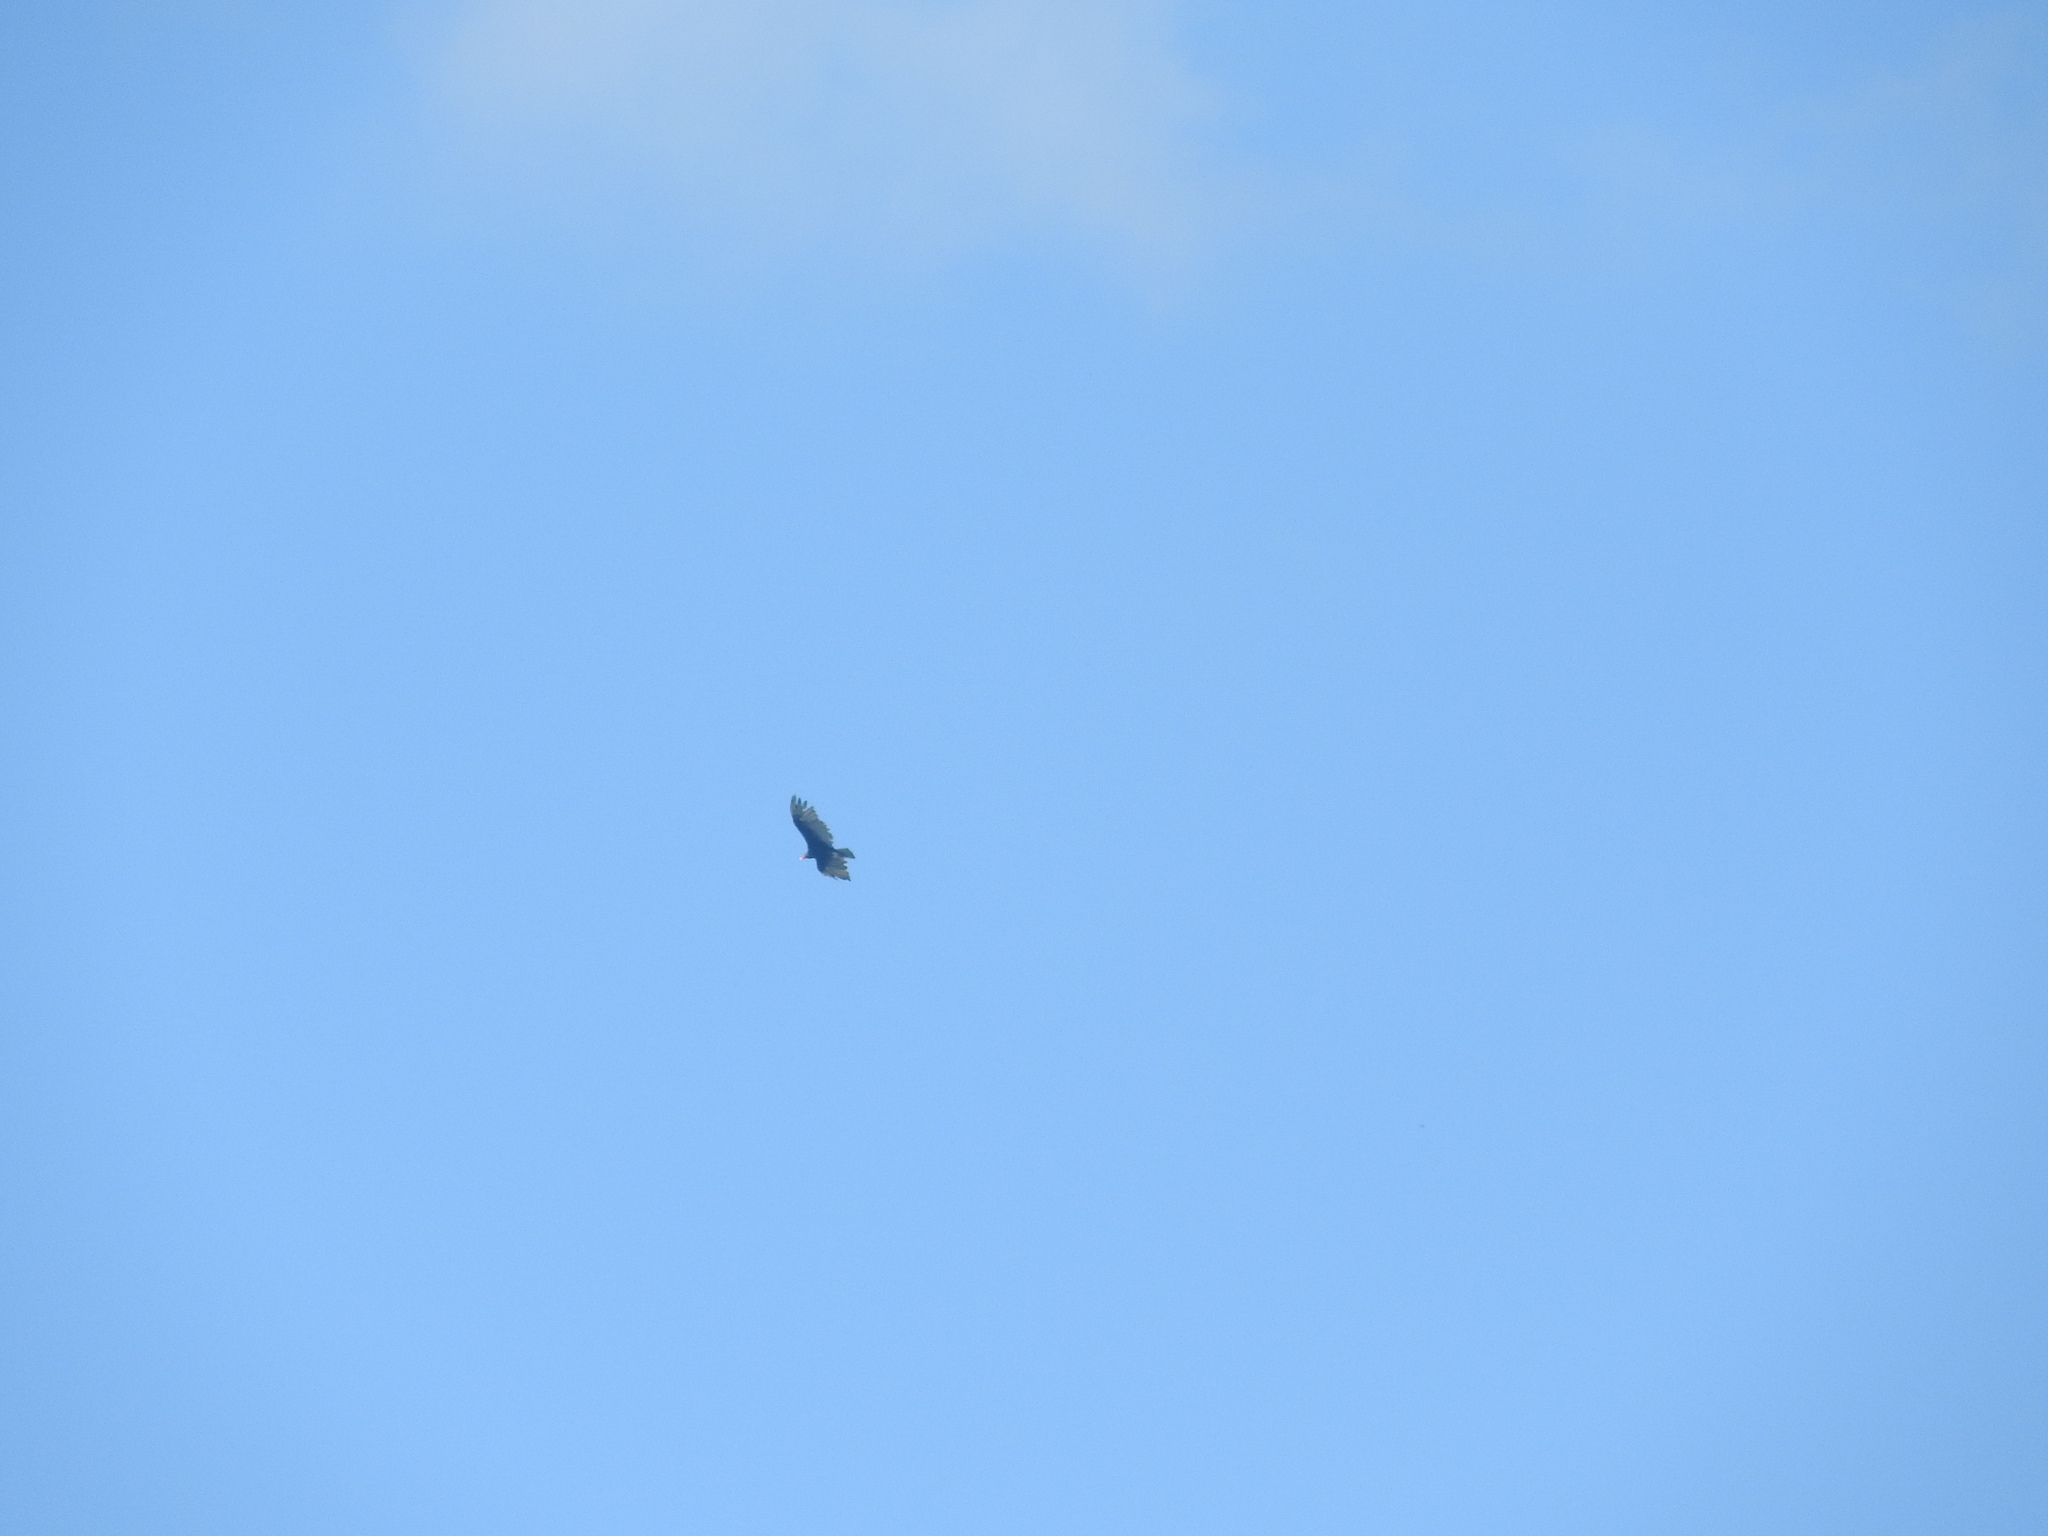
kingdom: Animalia
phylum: Chordata
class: Aves
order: Accipitriformes
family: Cathartidae
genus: Cathartes
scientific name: Cathartes burrovianus
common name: Lesser yellow-headed vulture
